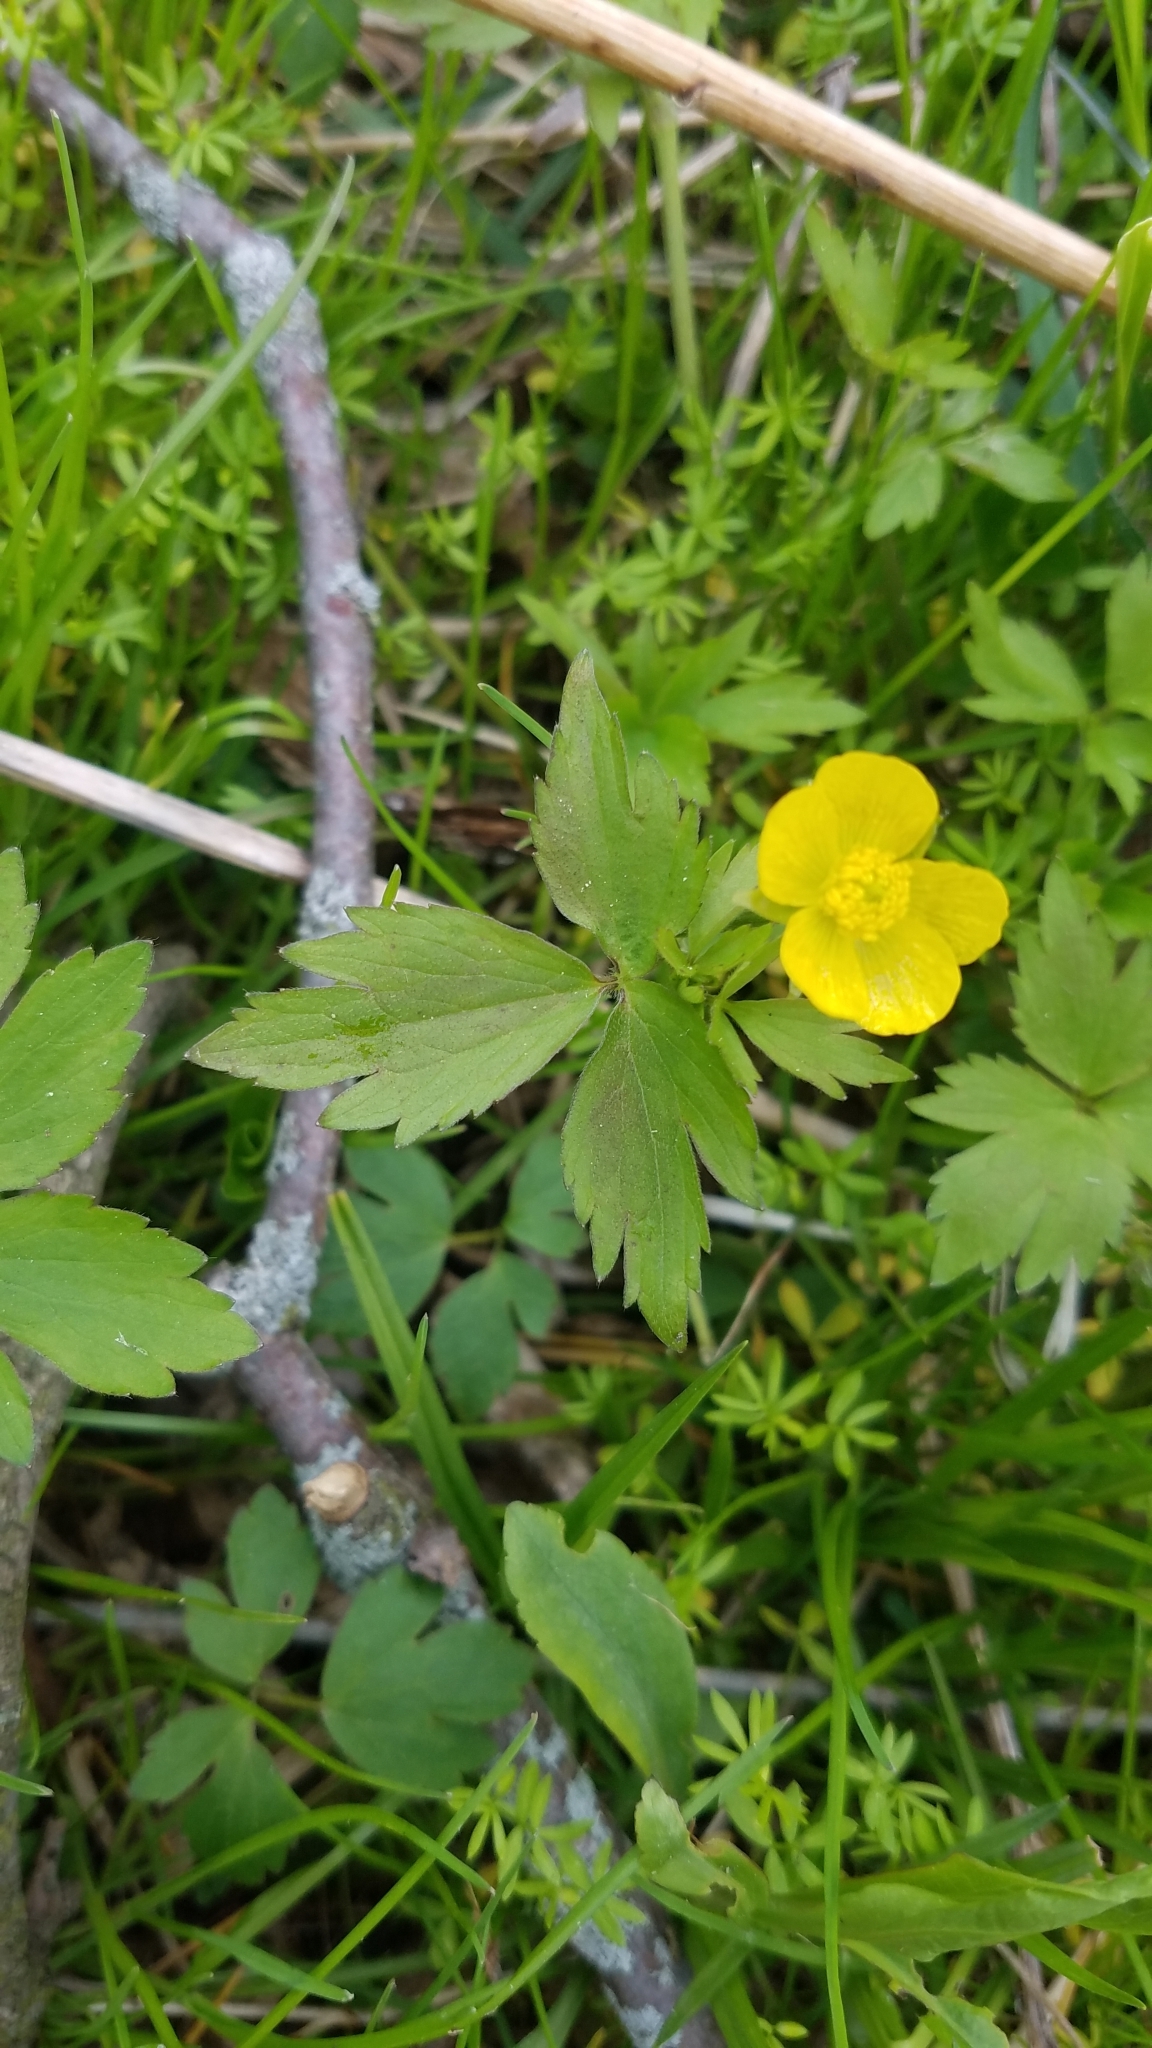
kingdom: Plantae
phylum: Tracheophyta
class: Magnoliopsida
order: Ranunculales
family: Ranunculaceae
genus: Ranunculus
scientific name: Ranunculus hispidus
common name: Bristly buttercup
